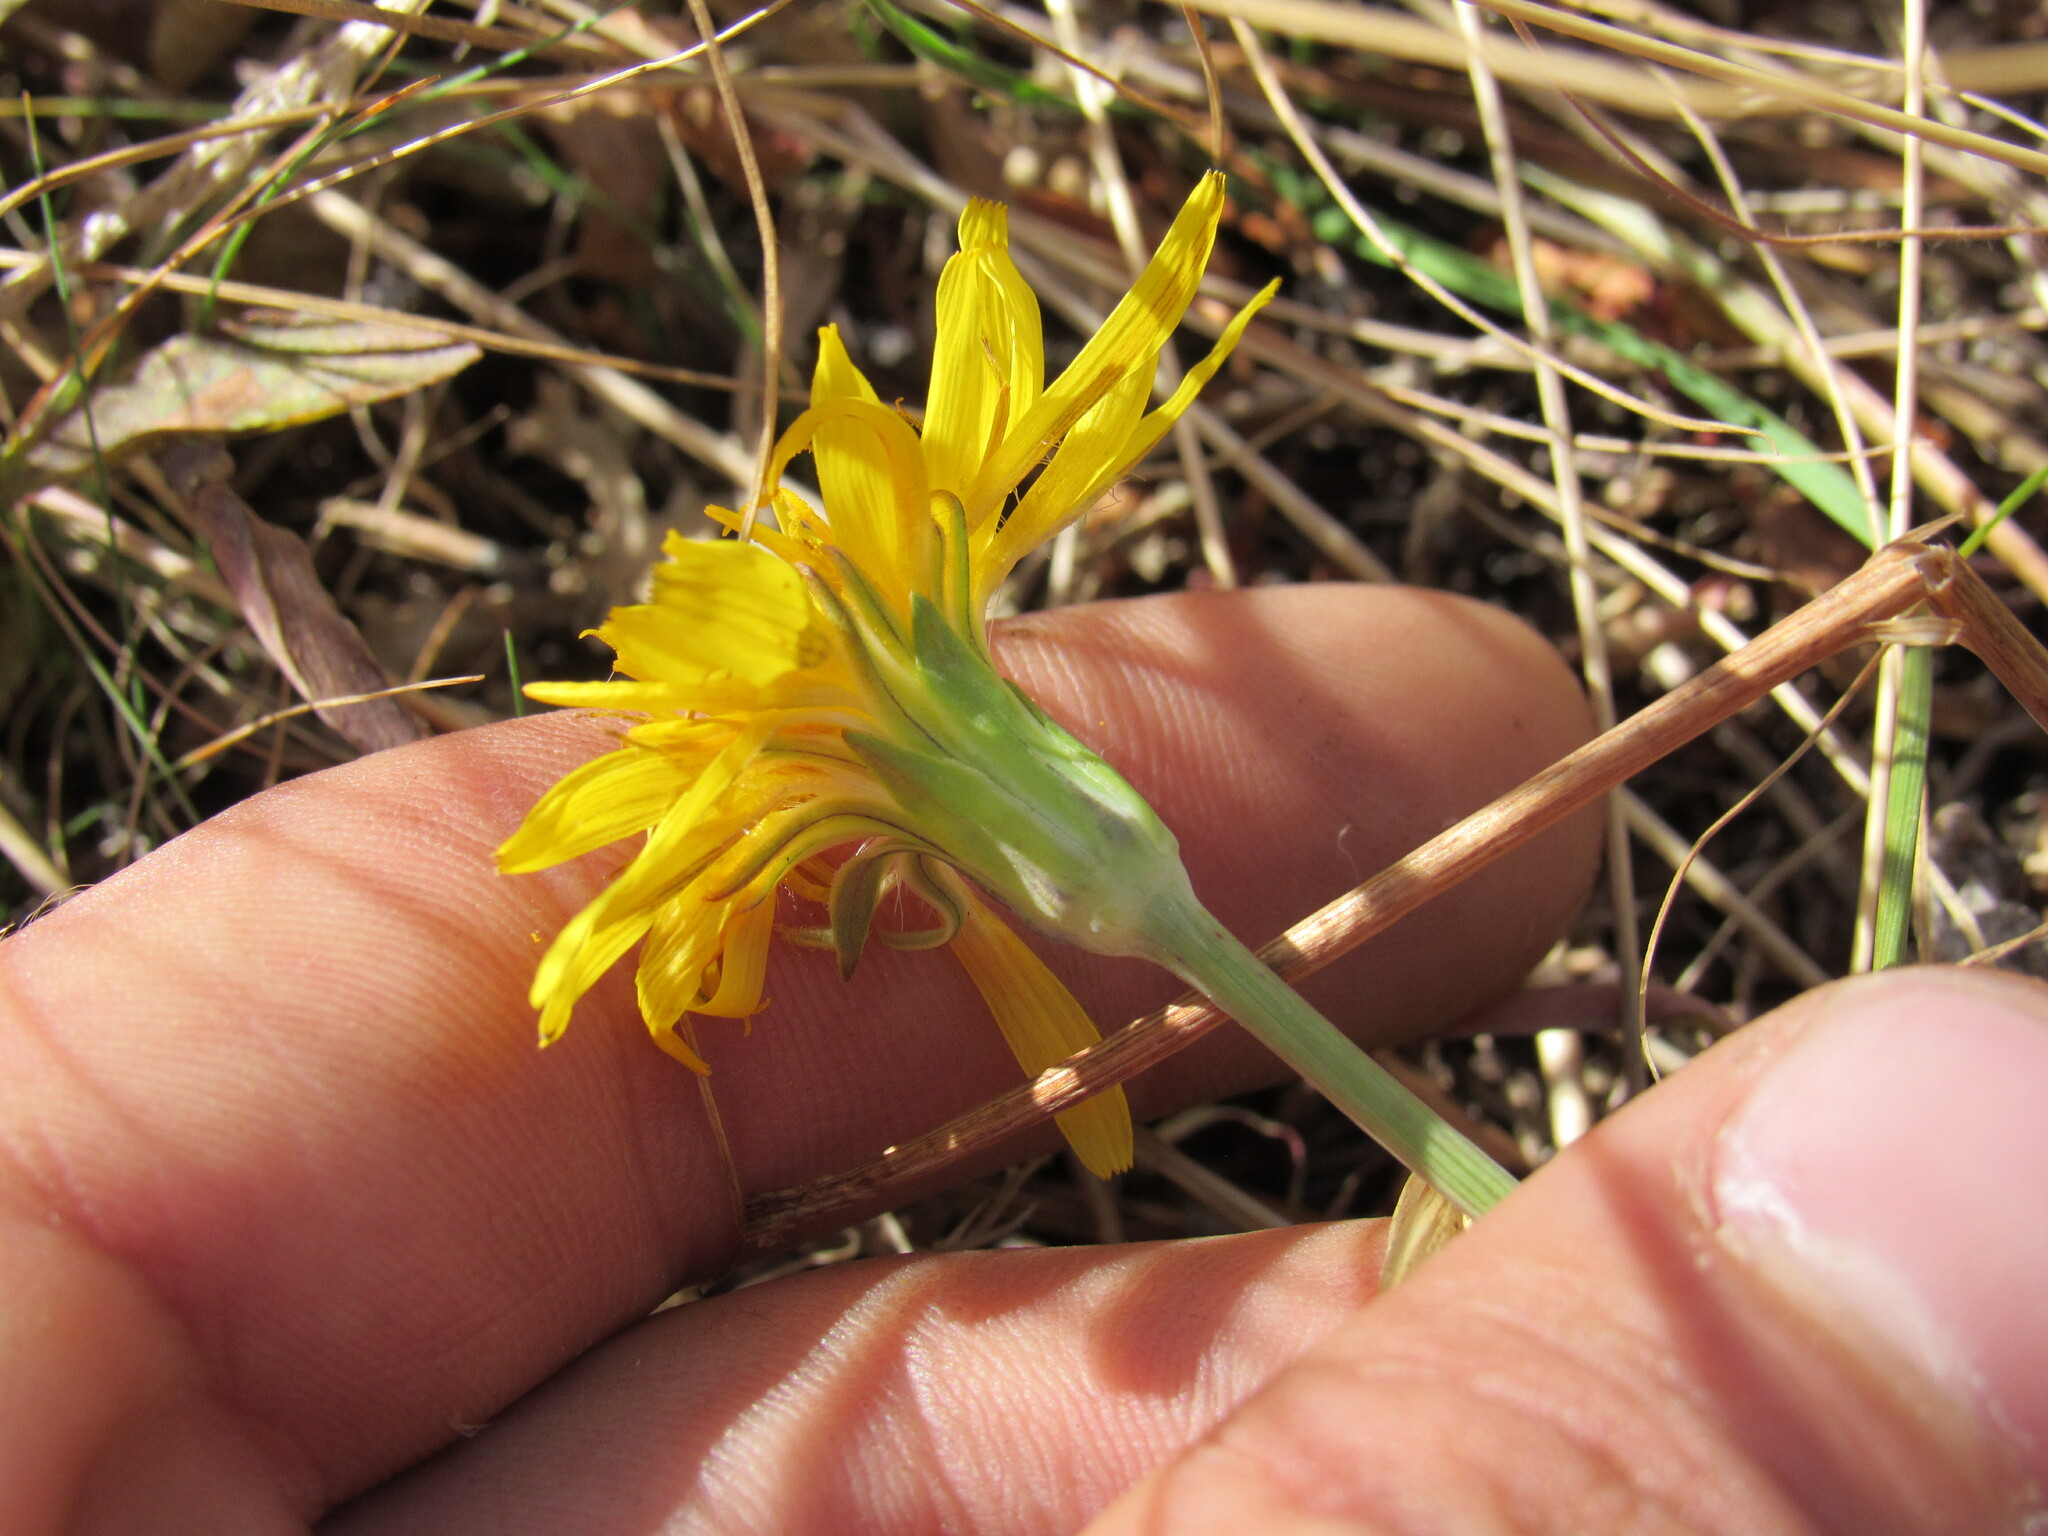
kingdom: Plantae
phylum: Tracheophyta
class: Magnoliopsida
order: Asterales
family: Asteraceae
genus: Agoseris
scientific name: Agoseris glauca
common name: Prairie agoseris
